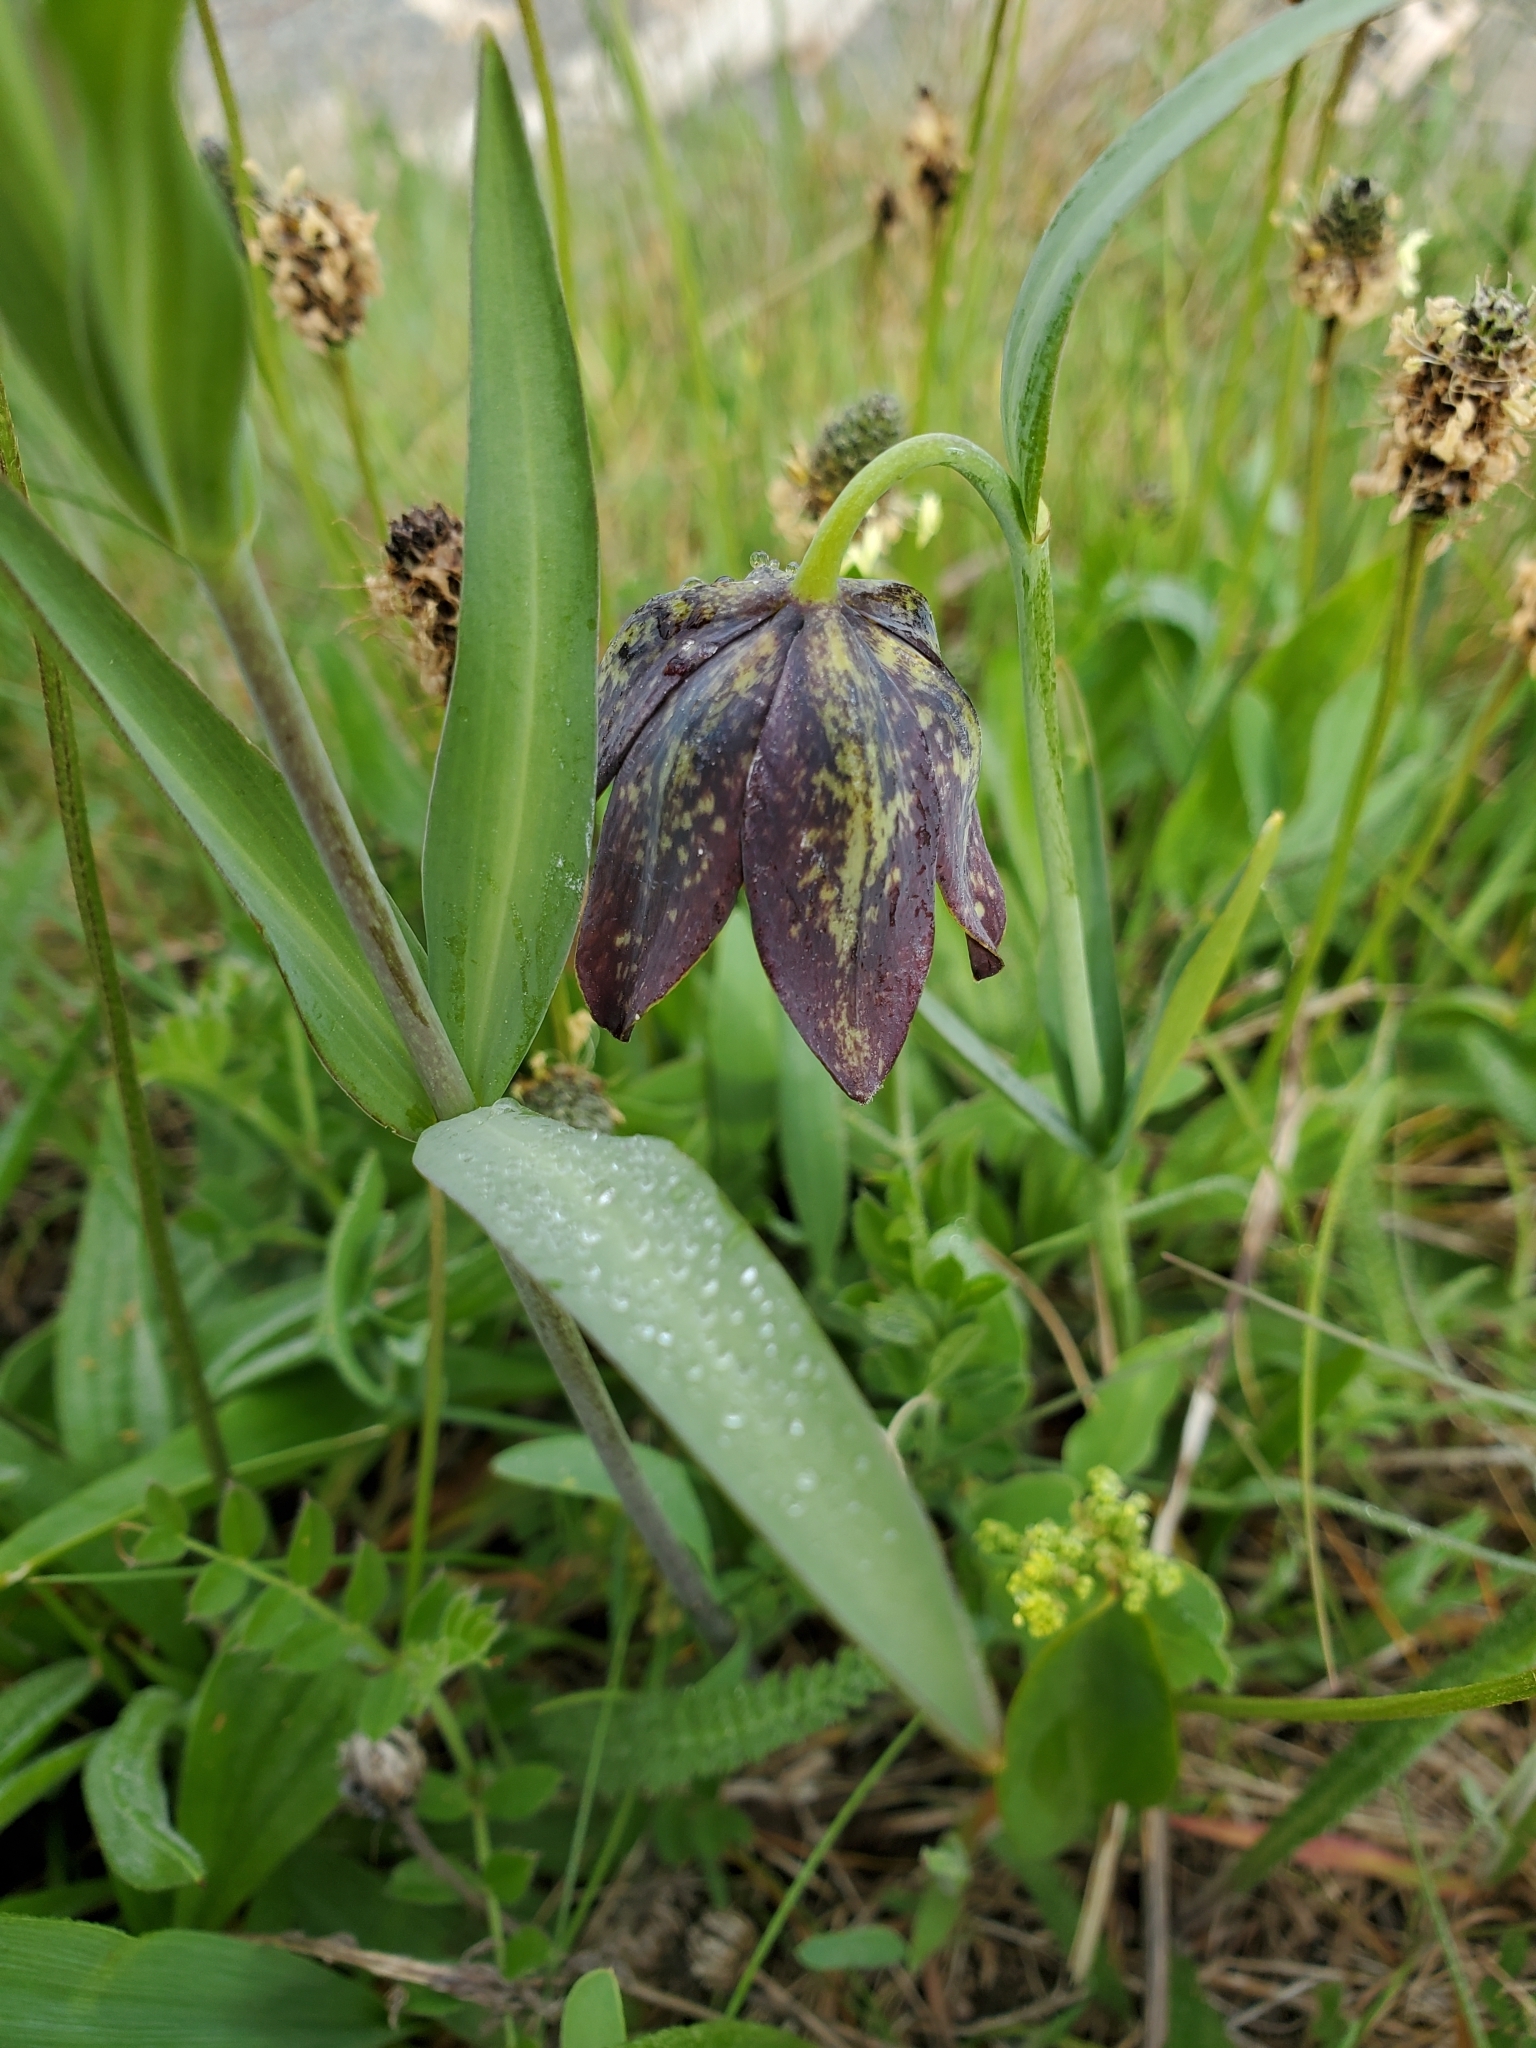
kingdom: Plantae
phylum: Tracheophyta
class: Liliopsida
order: Liliales
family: Liliaceae
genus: Fritillaria
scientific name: Fritillaria affinis
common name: Ojai fritillary
